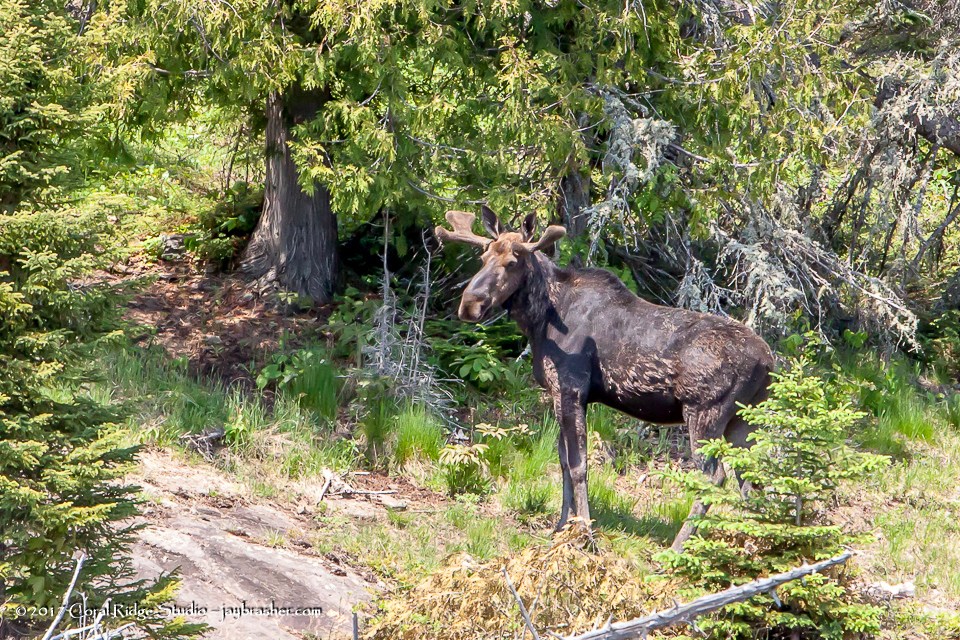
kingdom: Animalia
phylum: Chordata
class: Mammalia
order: Artiodactyla
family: Cervidae
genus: Alces
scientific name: Alces alces
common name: Moose
